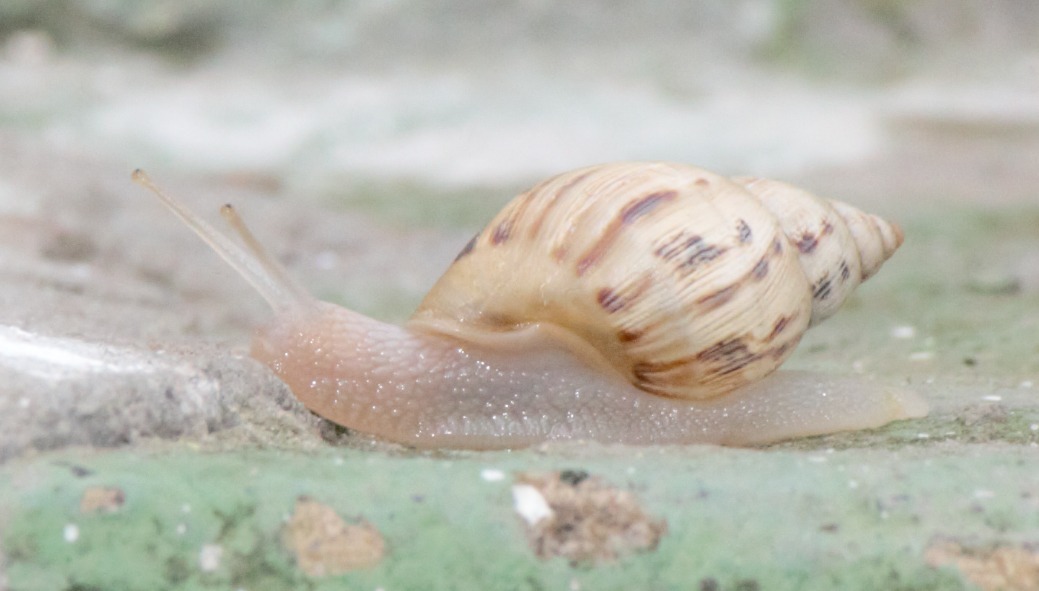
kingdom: Animalia
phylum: Mollusca
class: Gastropoda
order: Stylommatophora
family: Bulimulidae
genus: Drymaeus
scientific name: Drymaeus papyraceus
